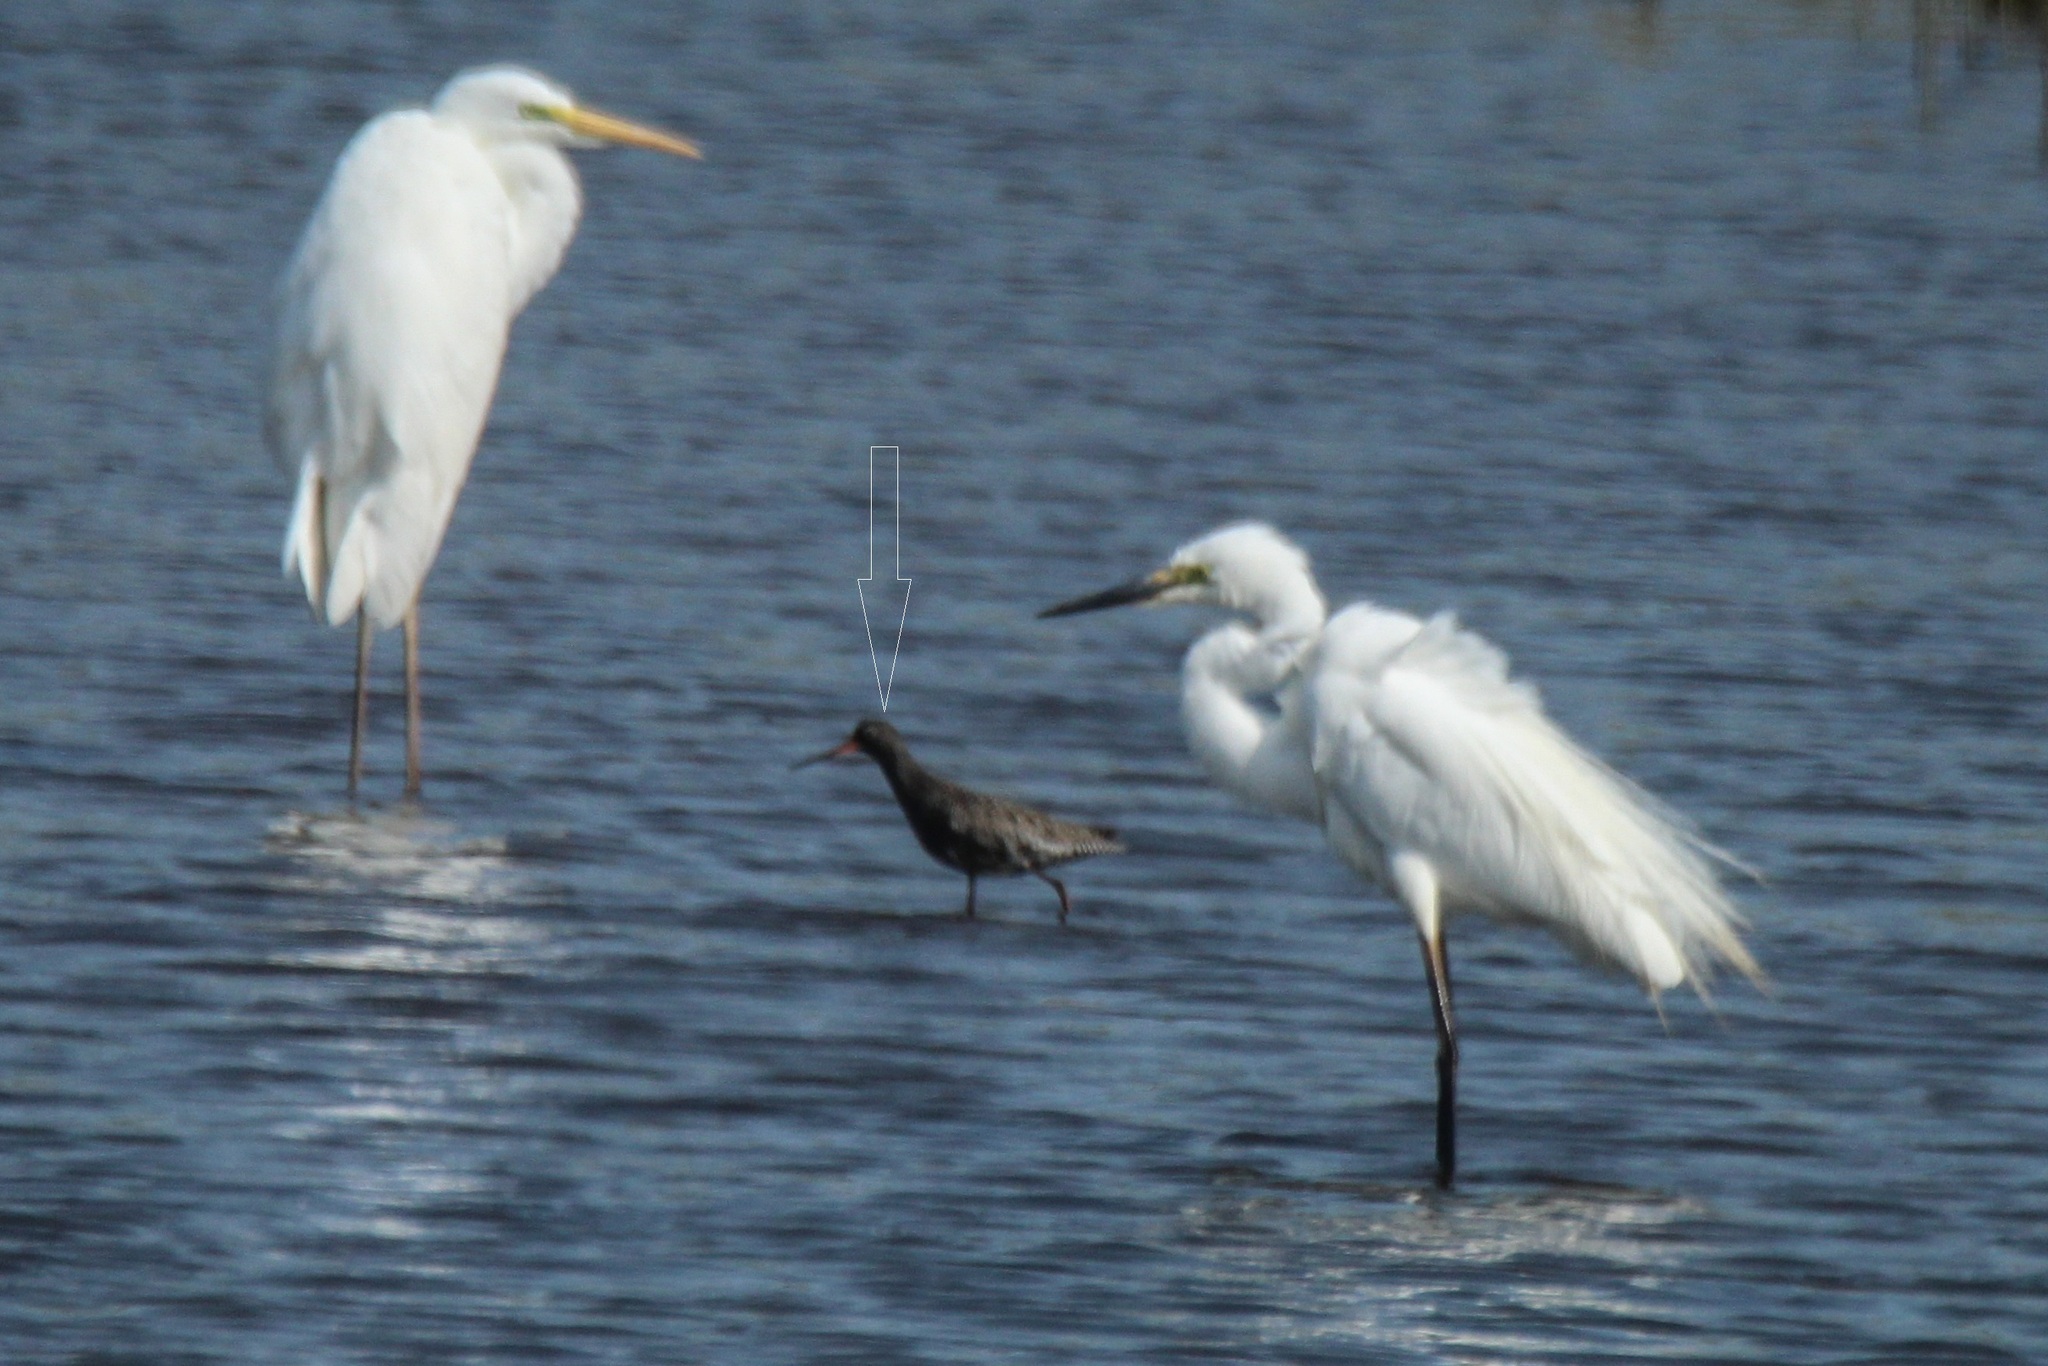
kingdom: Animalia
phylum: Chordata
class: Aves
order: Charadriiformes
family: Scolopacidae
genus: Tringa
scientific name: Tringa erythropus
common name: Spotted redshank
